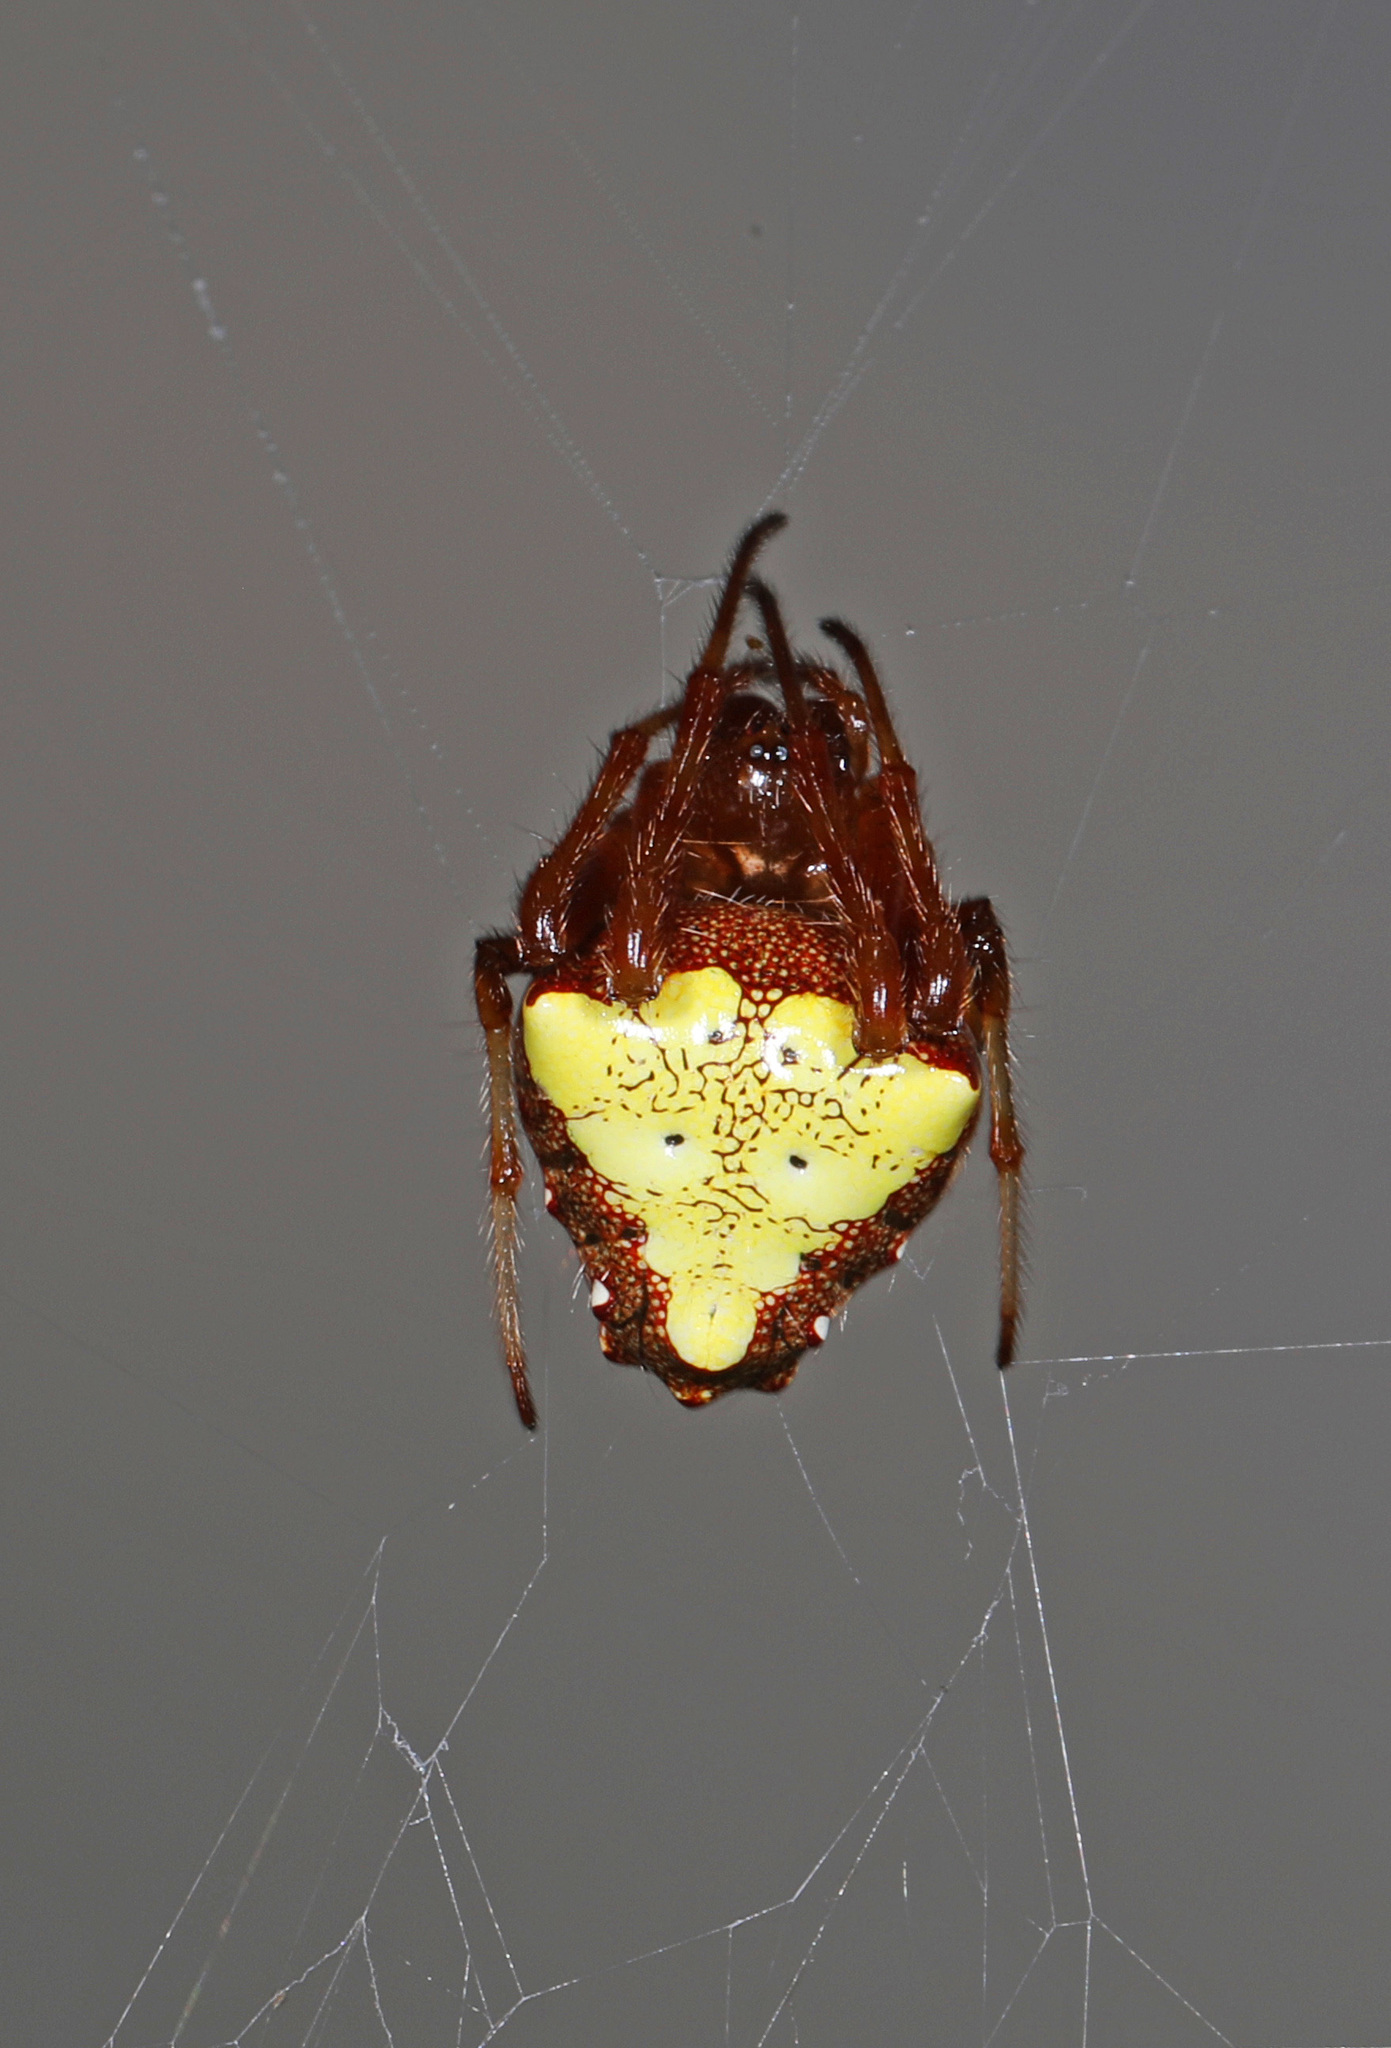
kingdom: Animalia
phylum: Arthropoda
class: Arachnida
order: Araneae
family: Araneidae
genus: Verrucosa
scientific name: Verrucosa arenata
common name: Orb weavers
